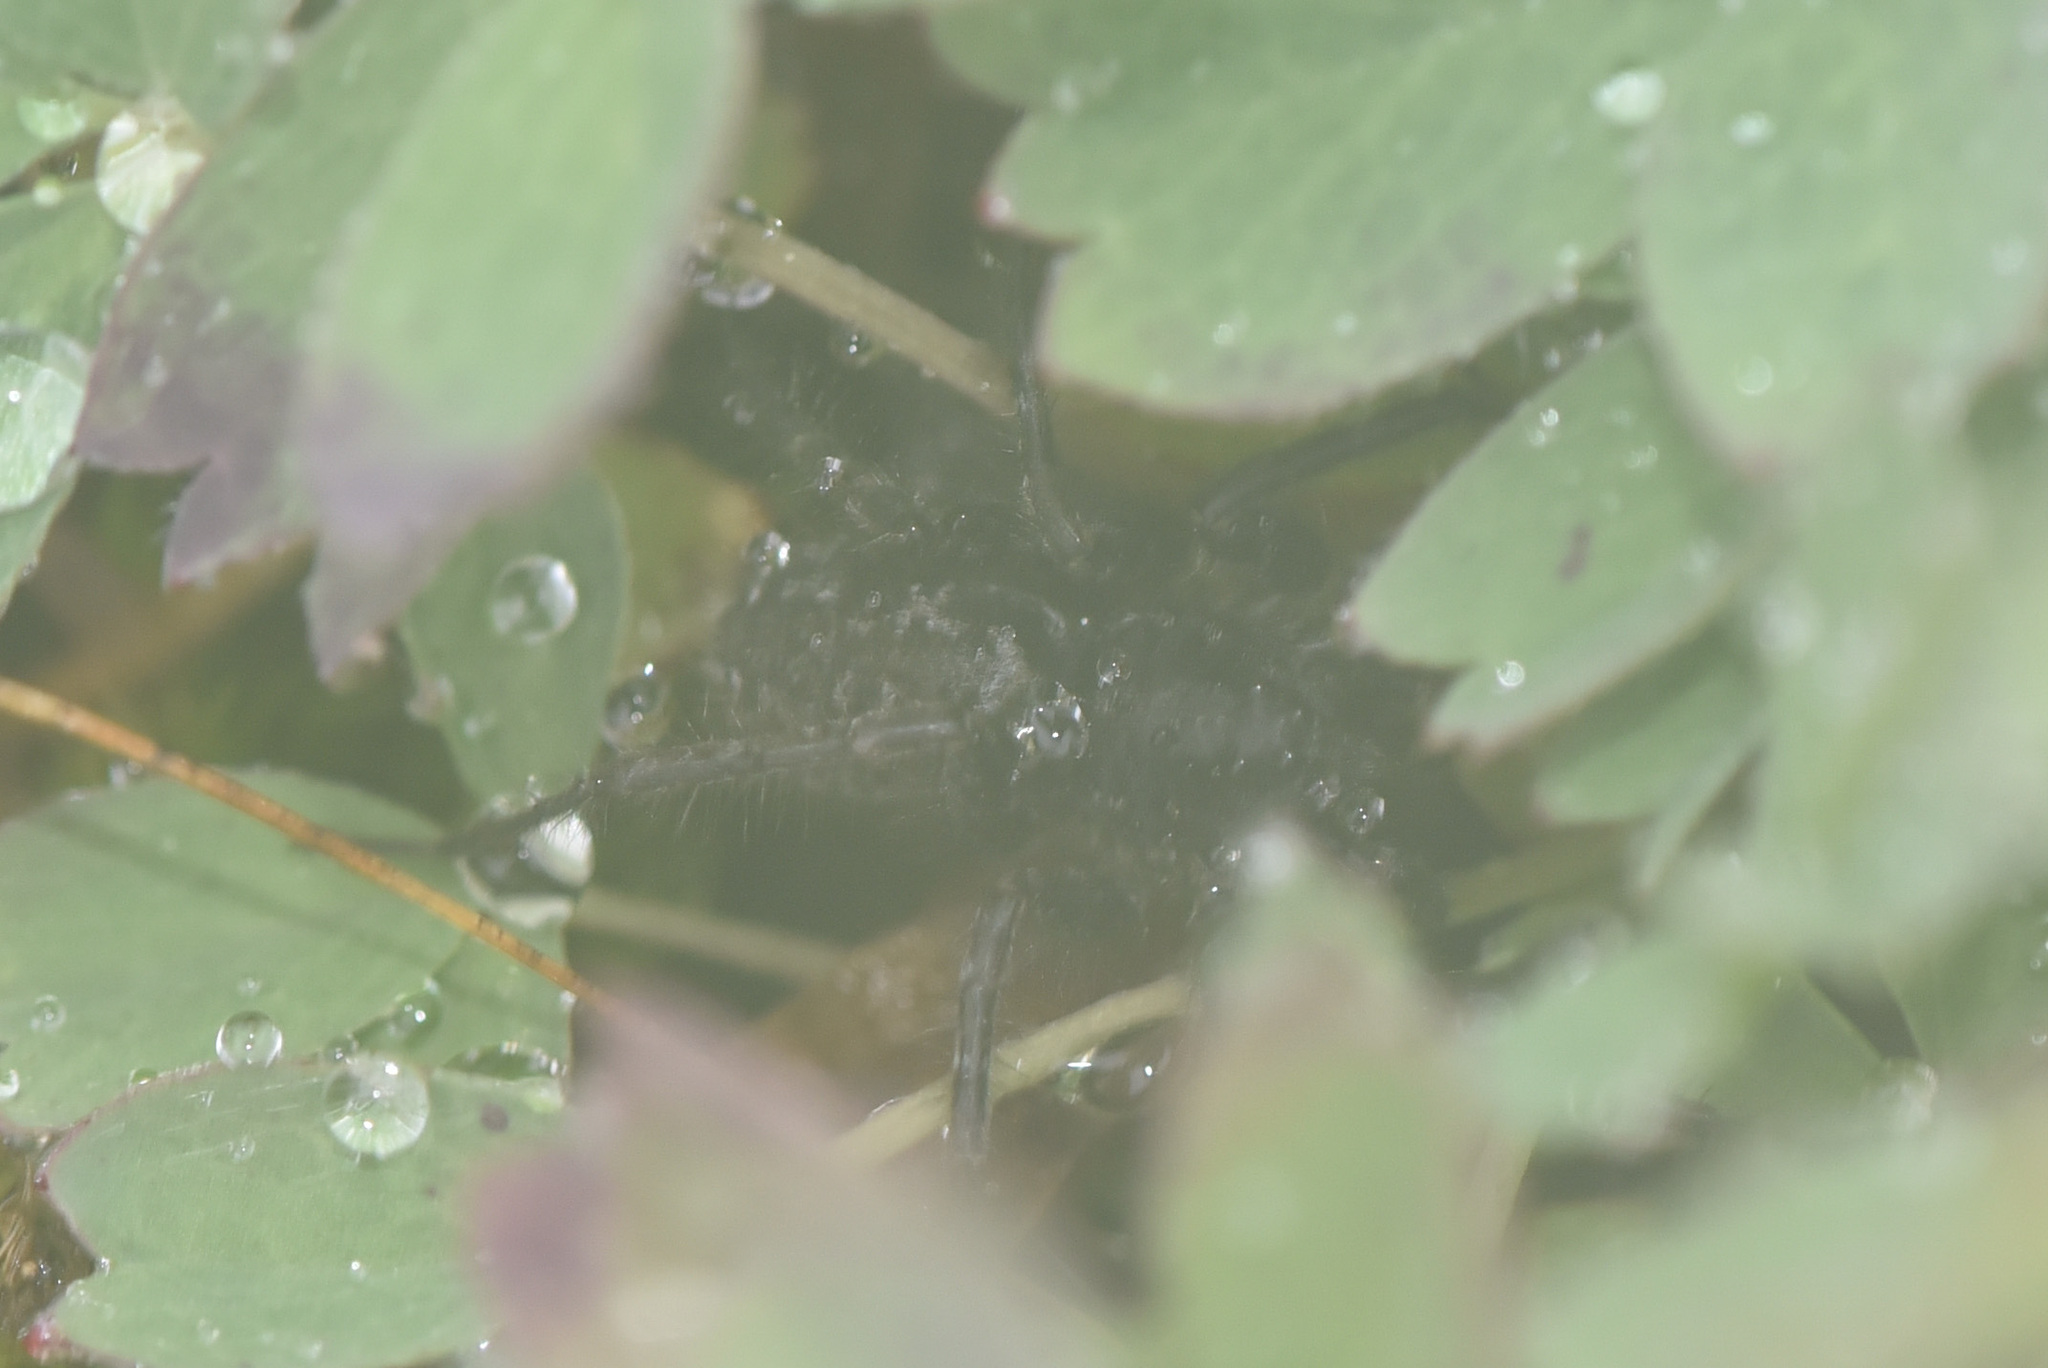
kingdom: Animalia
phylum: Arthropoda
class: Arachnida
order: Araneae
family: Lycosidae
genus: Pardosa
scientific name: Pardosa albomaculata
